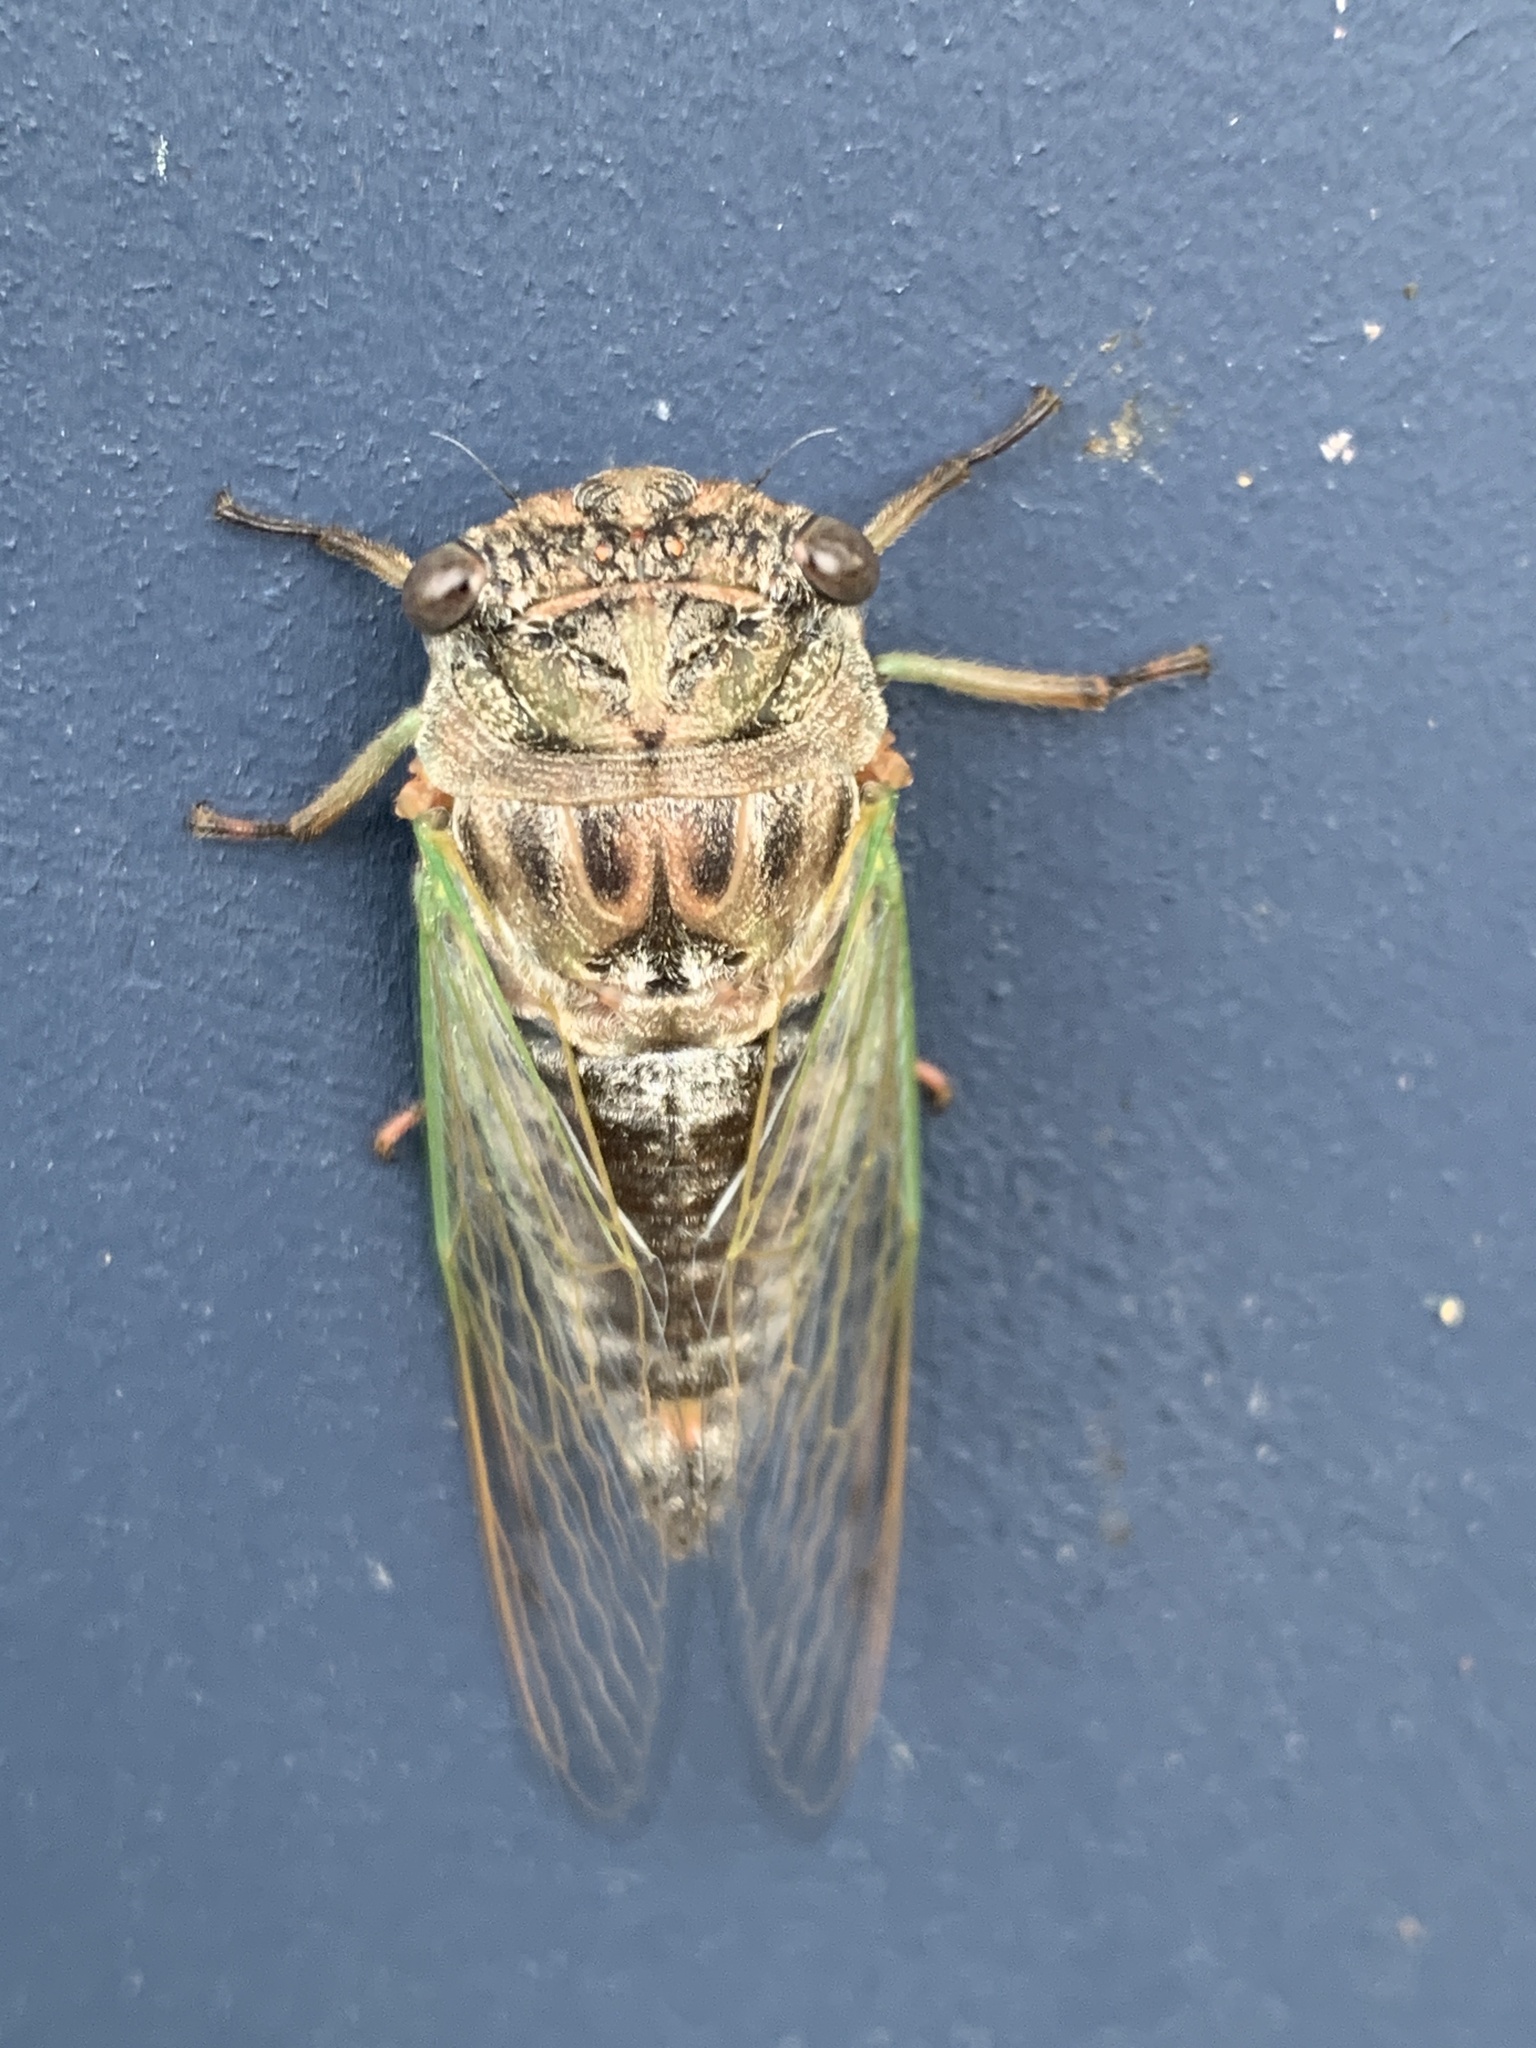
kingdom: Animalia
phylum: Arthropoda
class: Insecta
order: Hemiptera
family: Cicadidae
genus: Neotibicen
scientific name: Neotibicen canicularis
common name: God-day cicada
